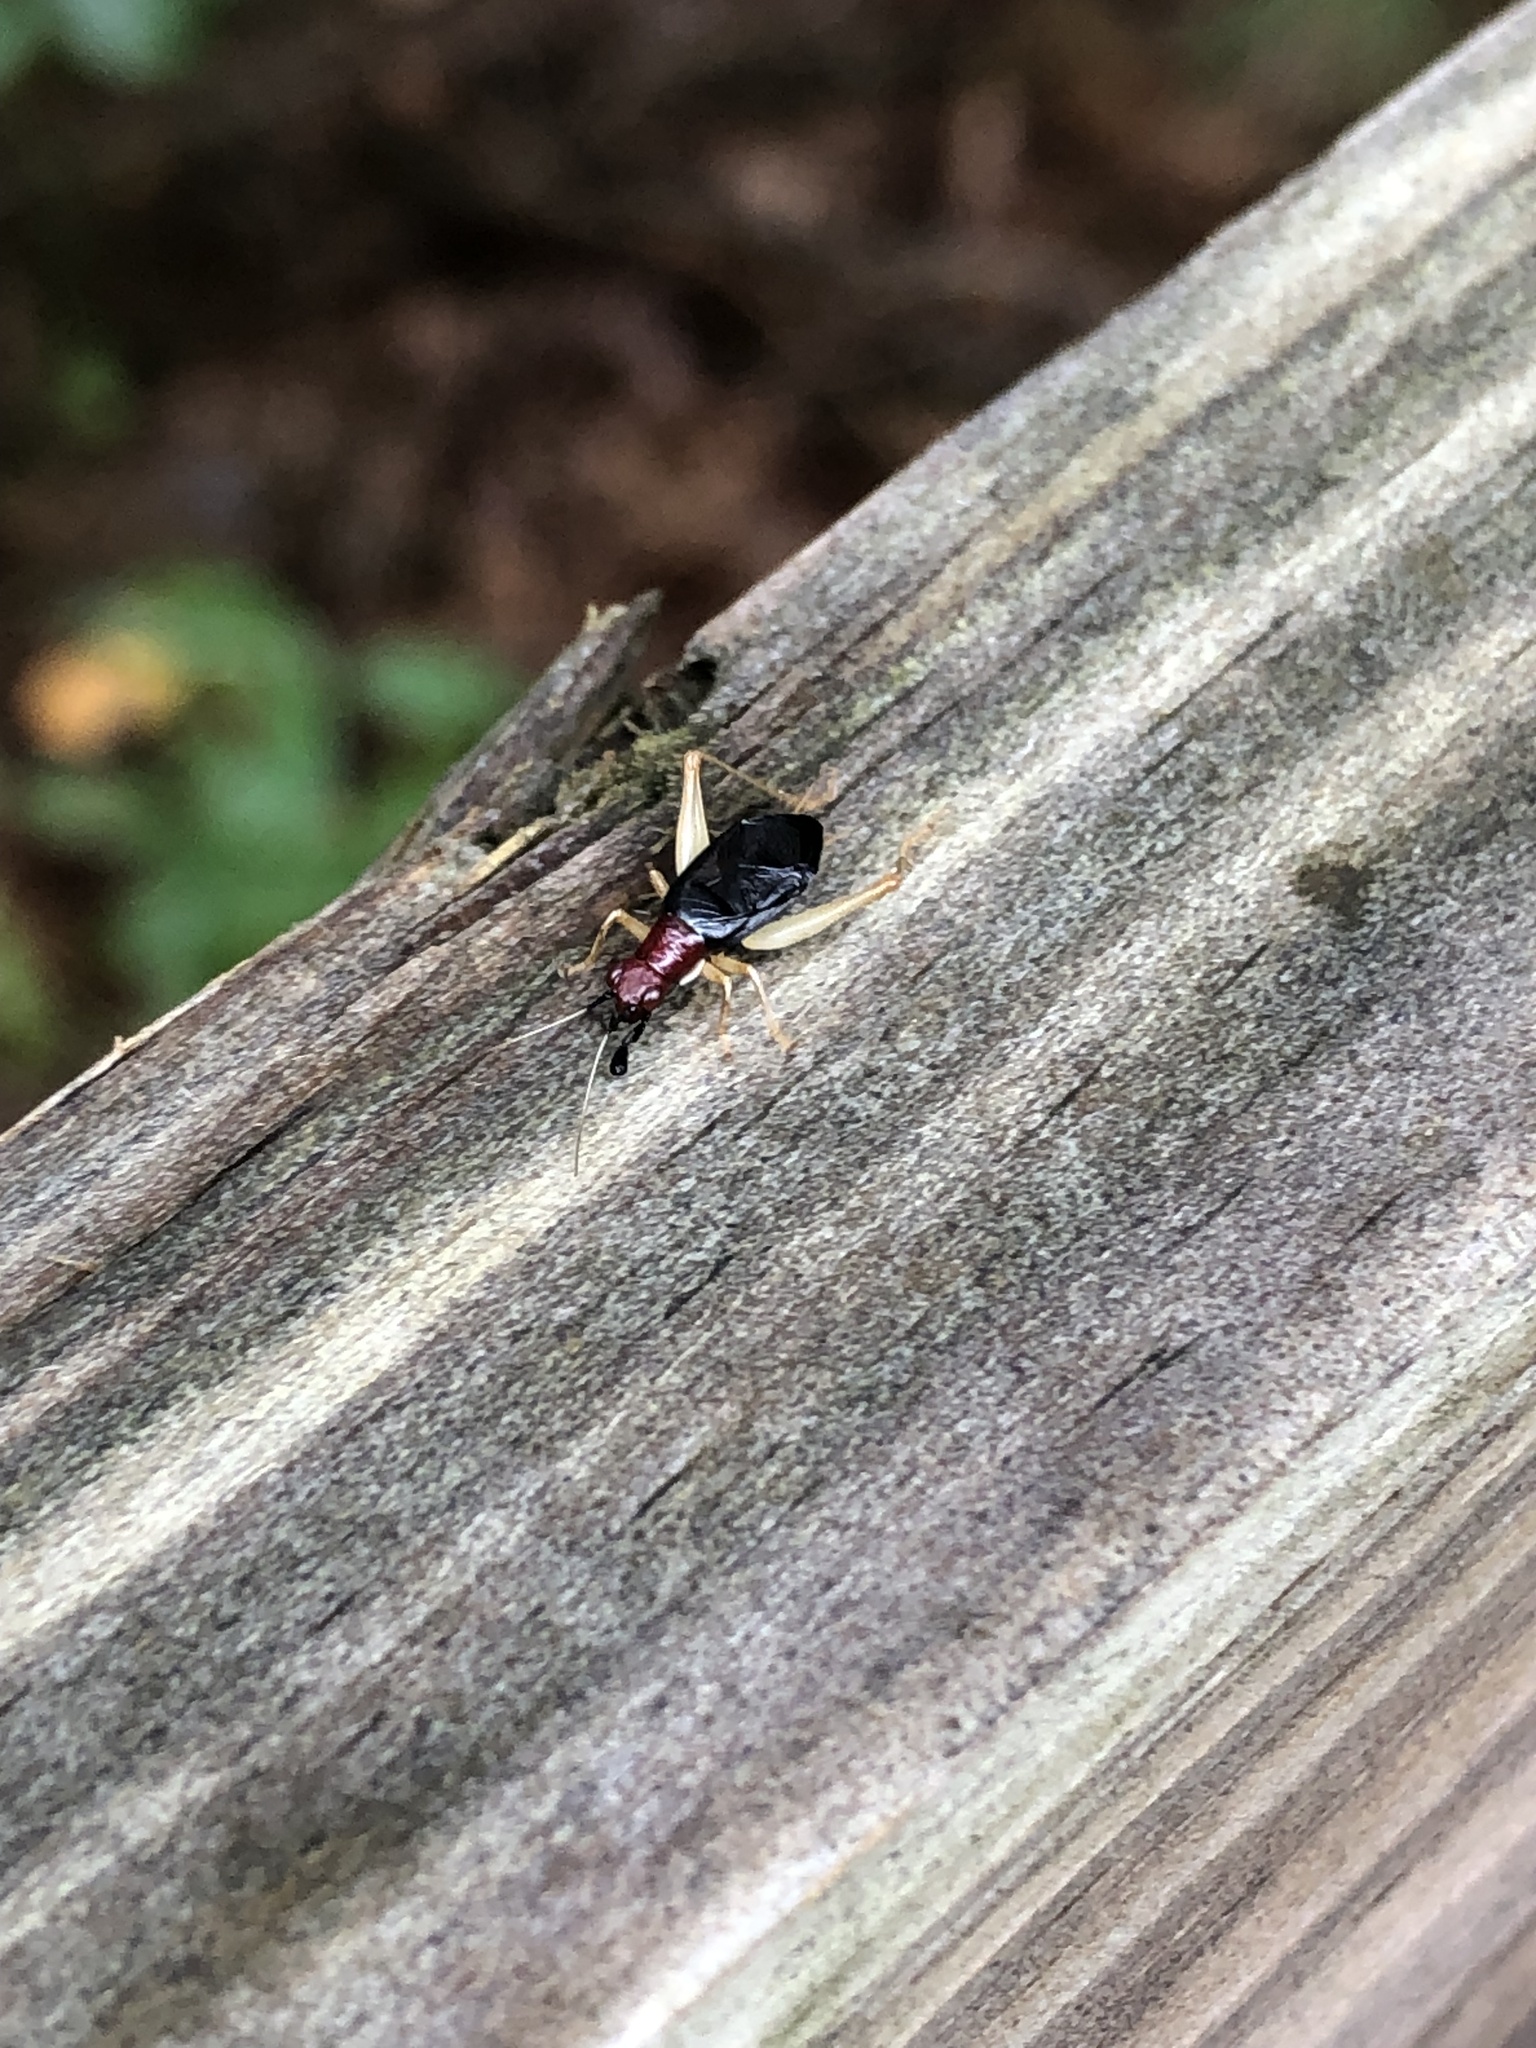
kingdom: Animalia
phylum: Arthropoda
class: Insecta
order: Orthoptera
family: Trigonidiidae
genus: Phyllopalpus
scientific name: Phyllopalpus pulchellus
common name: Handsome trig
